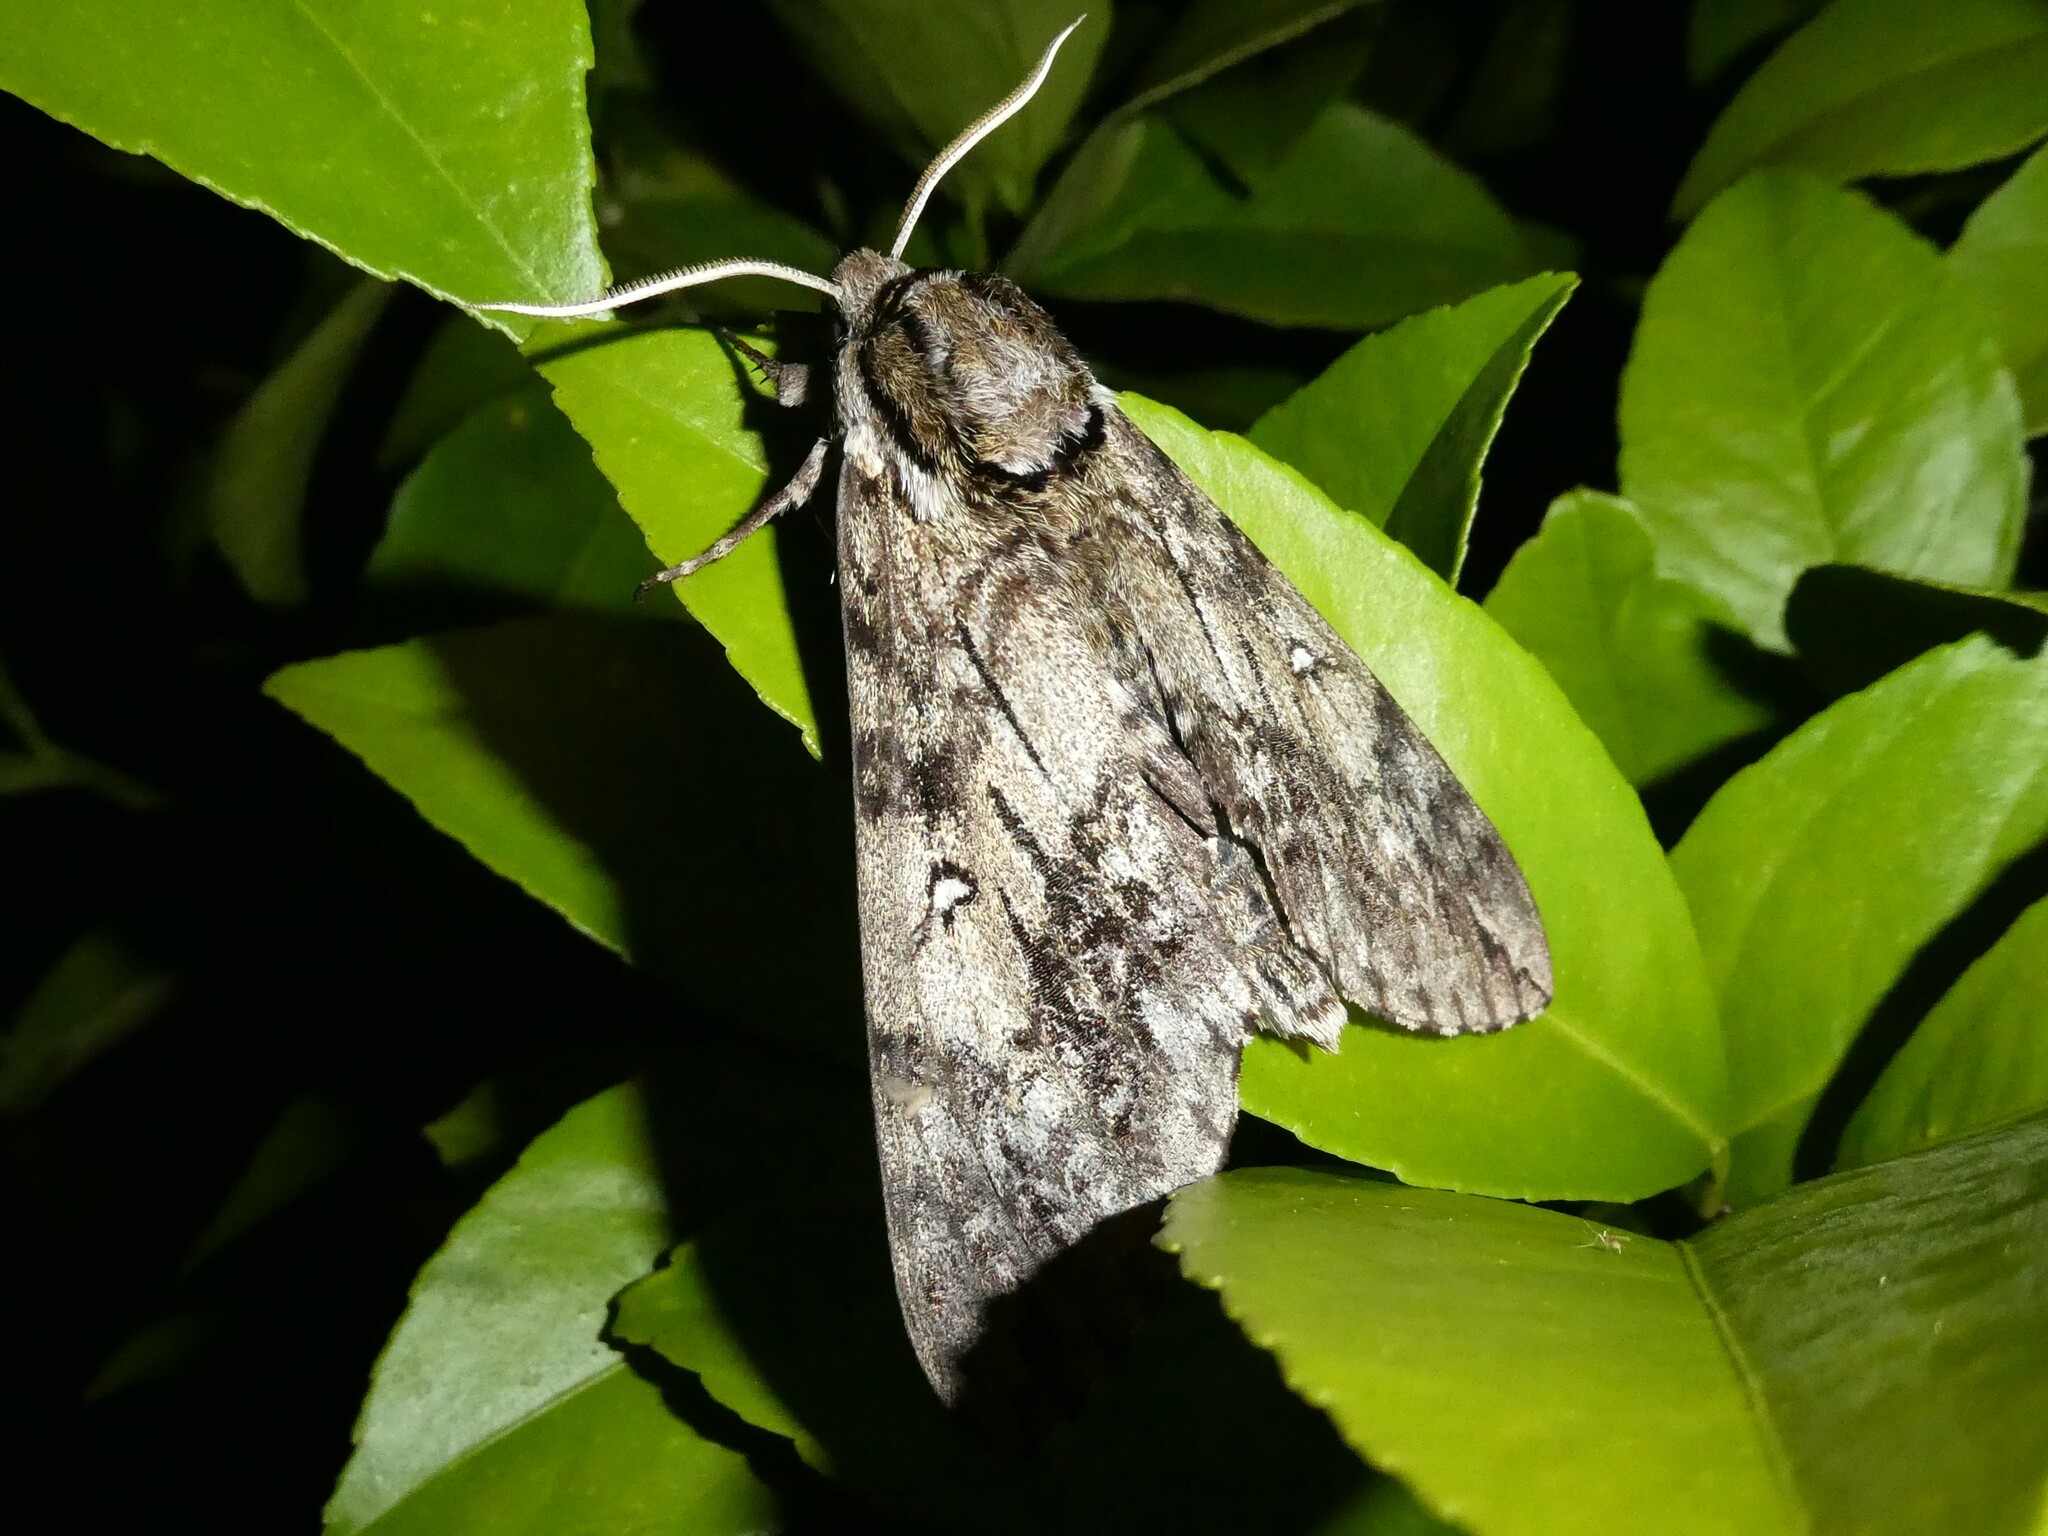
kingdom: Animalia
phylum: Arthropoda
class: Insecta
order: Lepidoptera
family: Sphingidae
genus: Ceratomia
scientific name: Ceratomia undulosa
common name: Waved sphinx
